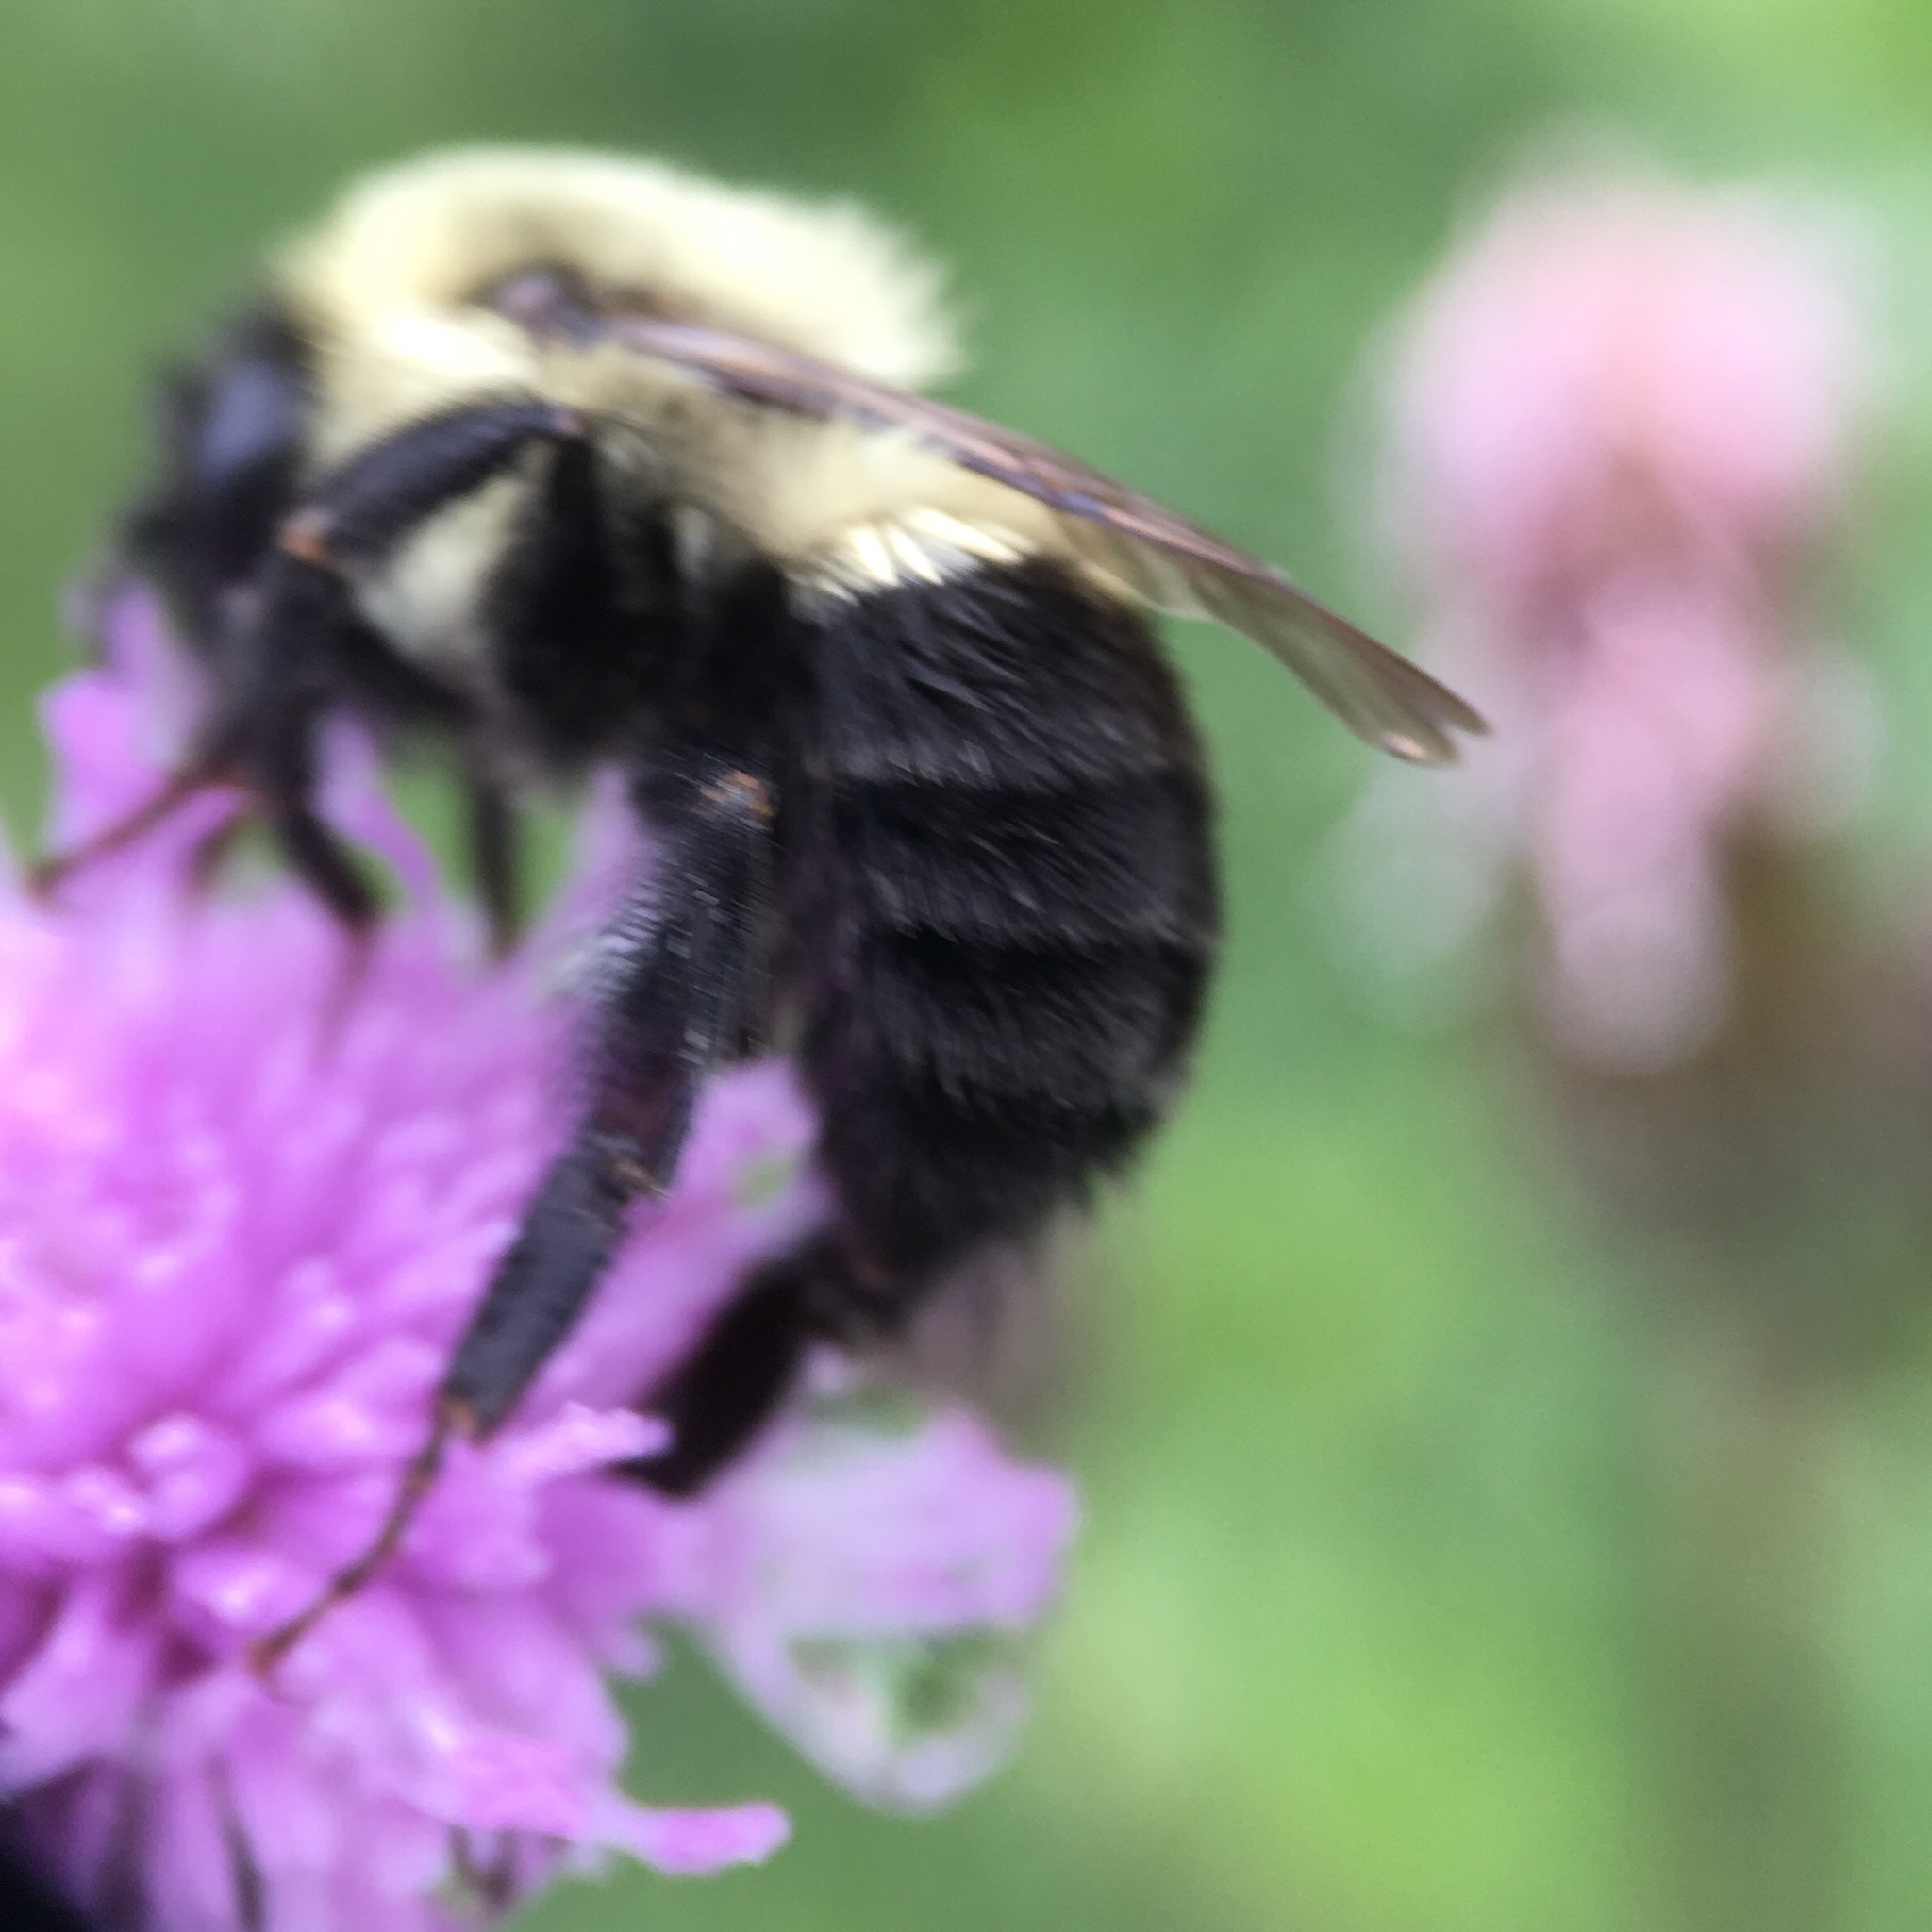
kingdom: Animalia
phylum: Arthropoda
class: Insecta
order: Hymenoptera
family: Apidae
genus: Bombus
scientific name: Bombus impatiens
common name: Common eastern bumble bee
